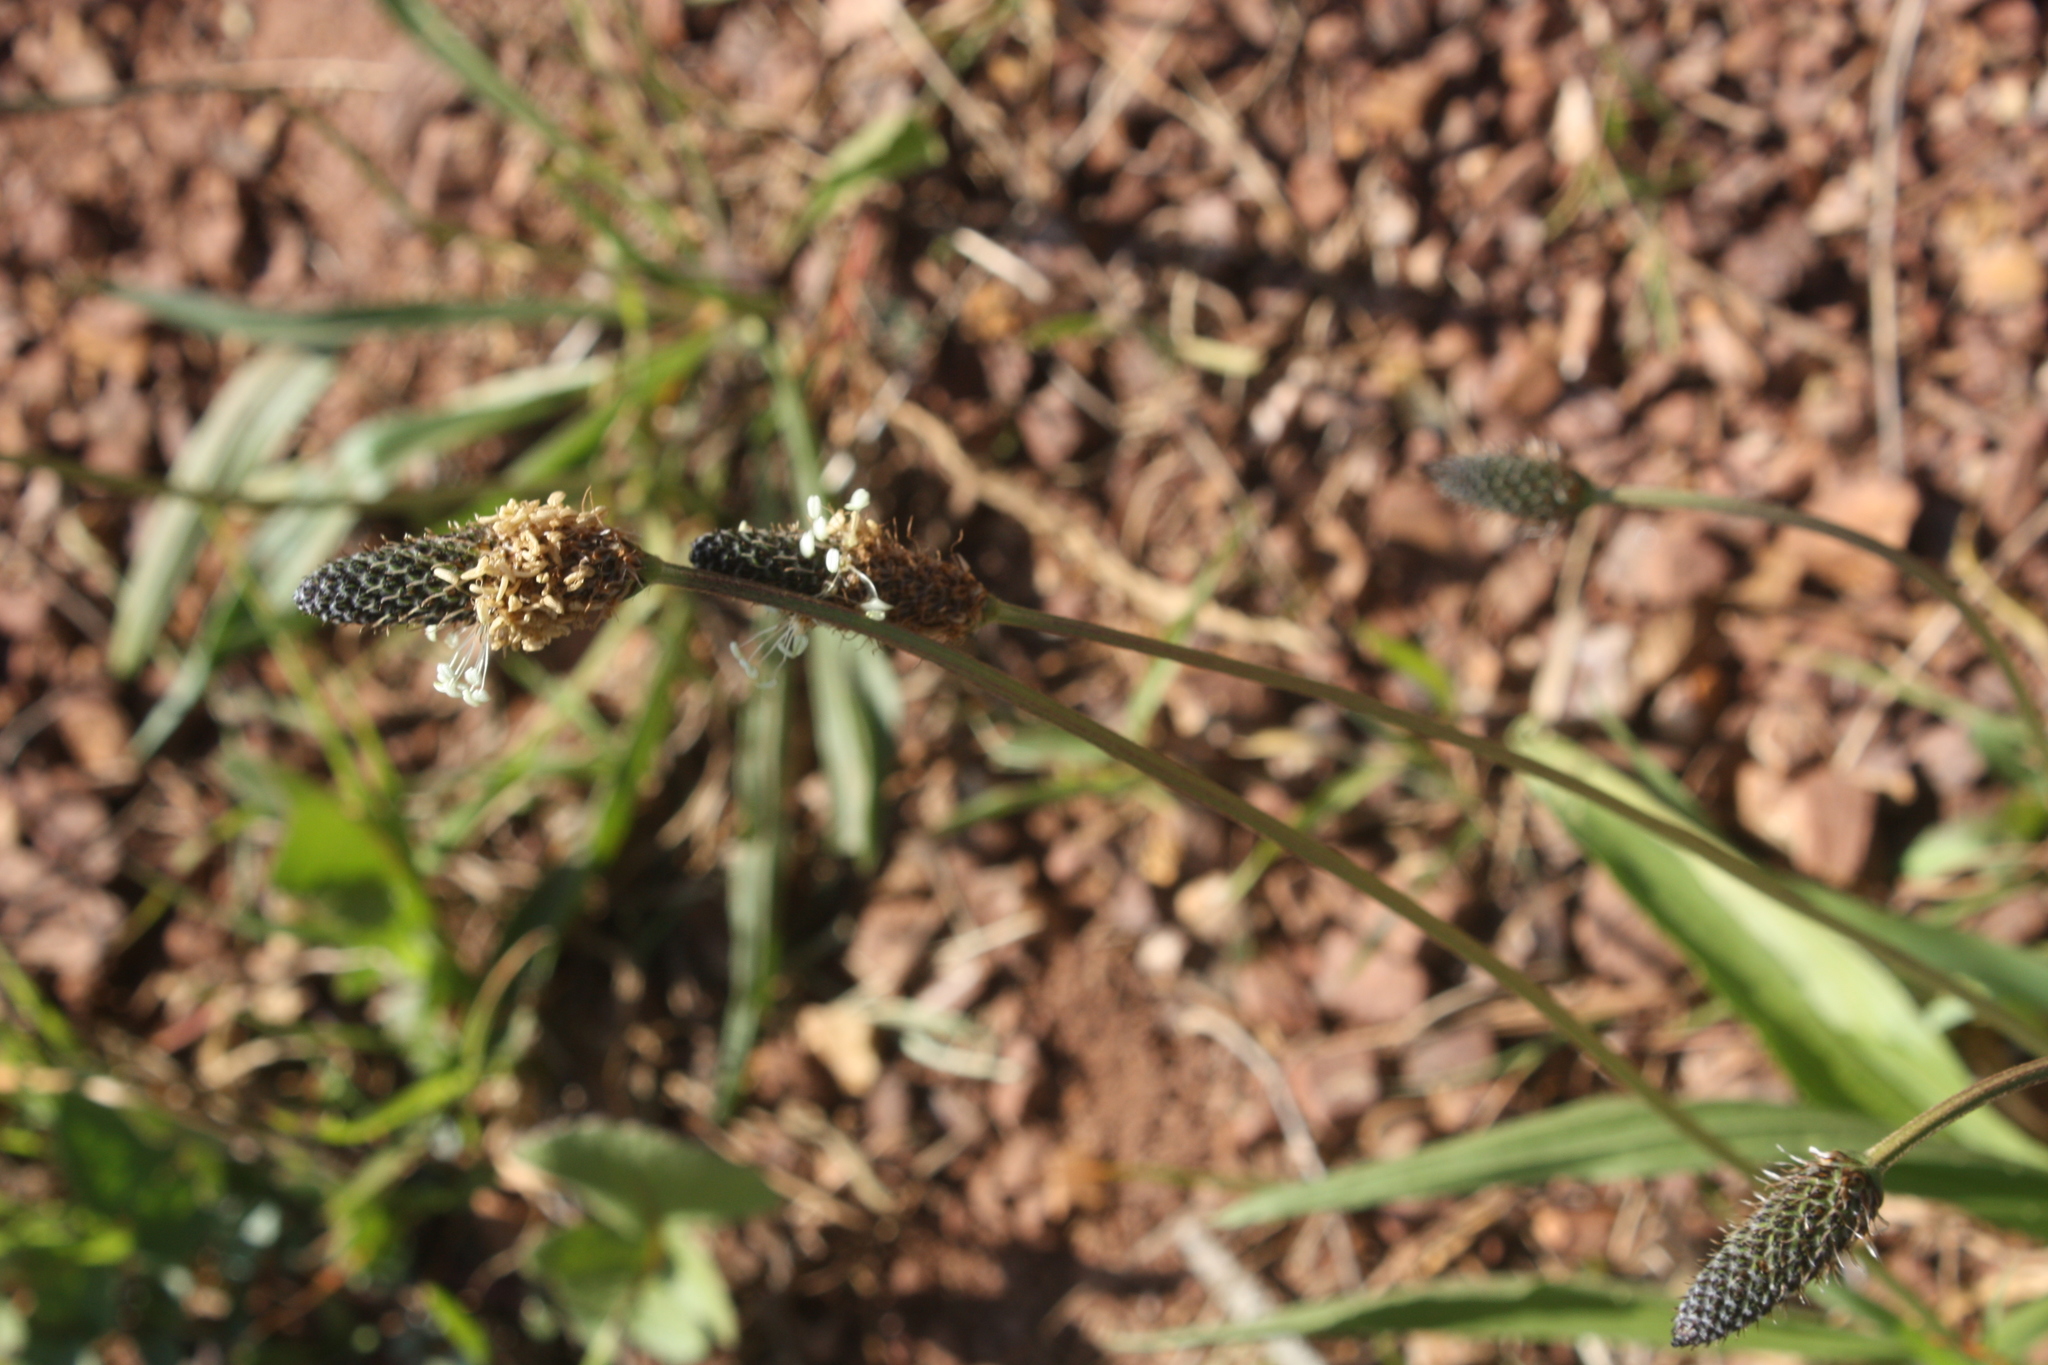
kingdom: Plantae
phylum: Tracheophyta
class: Magnoliopsida
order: Lamiales
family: Plantaginaceae
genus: Plantago
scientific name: Plantago lanceolata
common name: Ribwort plantain
